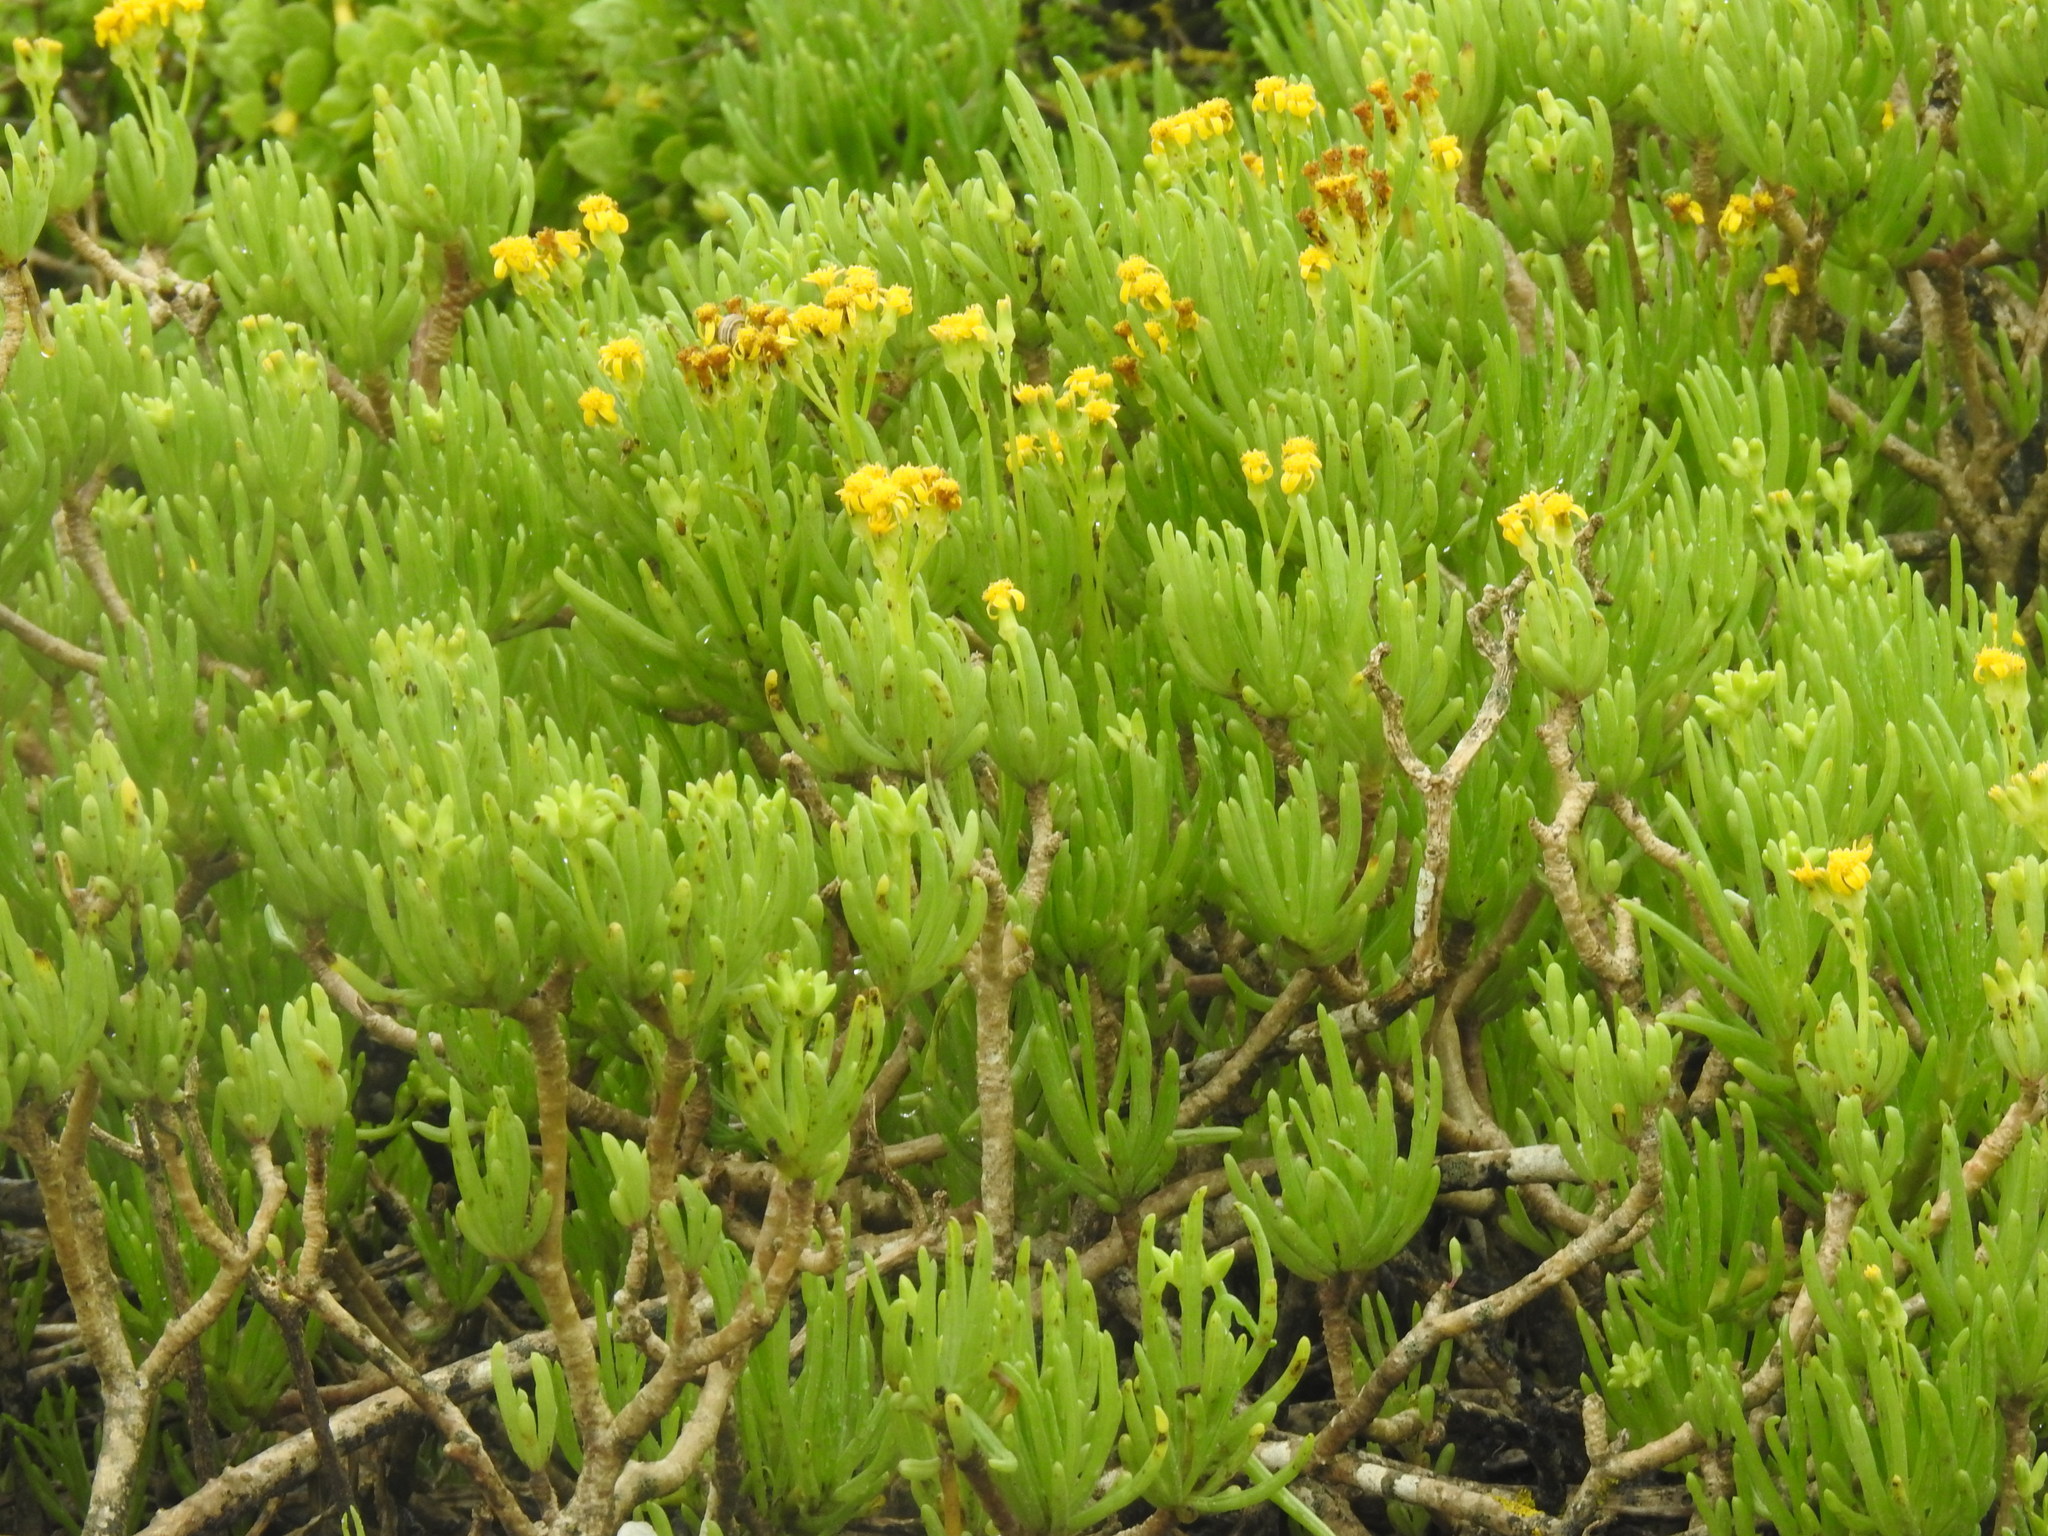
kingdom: Plantae
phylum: Tracheophyta
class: Magnoliopsida
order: Asterales
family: Asteraceae
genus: Curio
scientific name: Curio corymbifer
